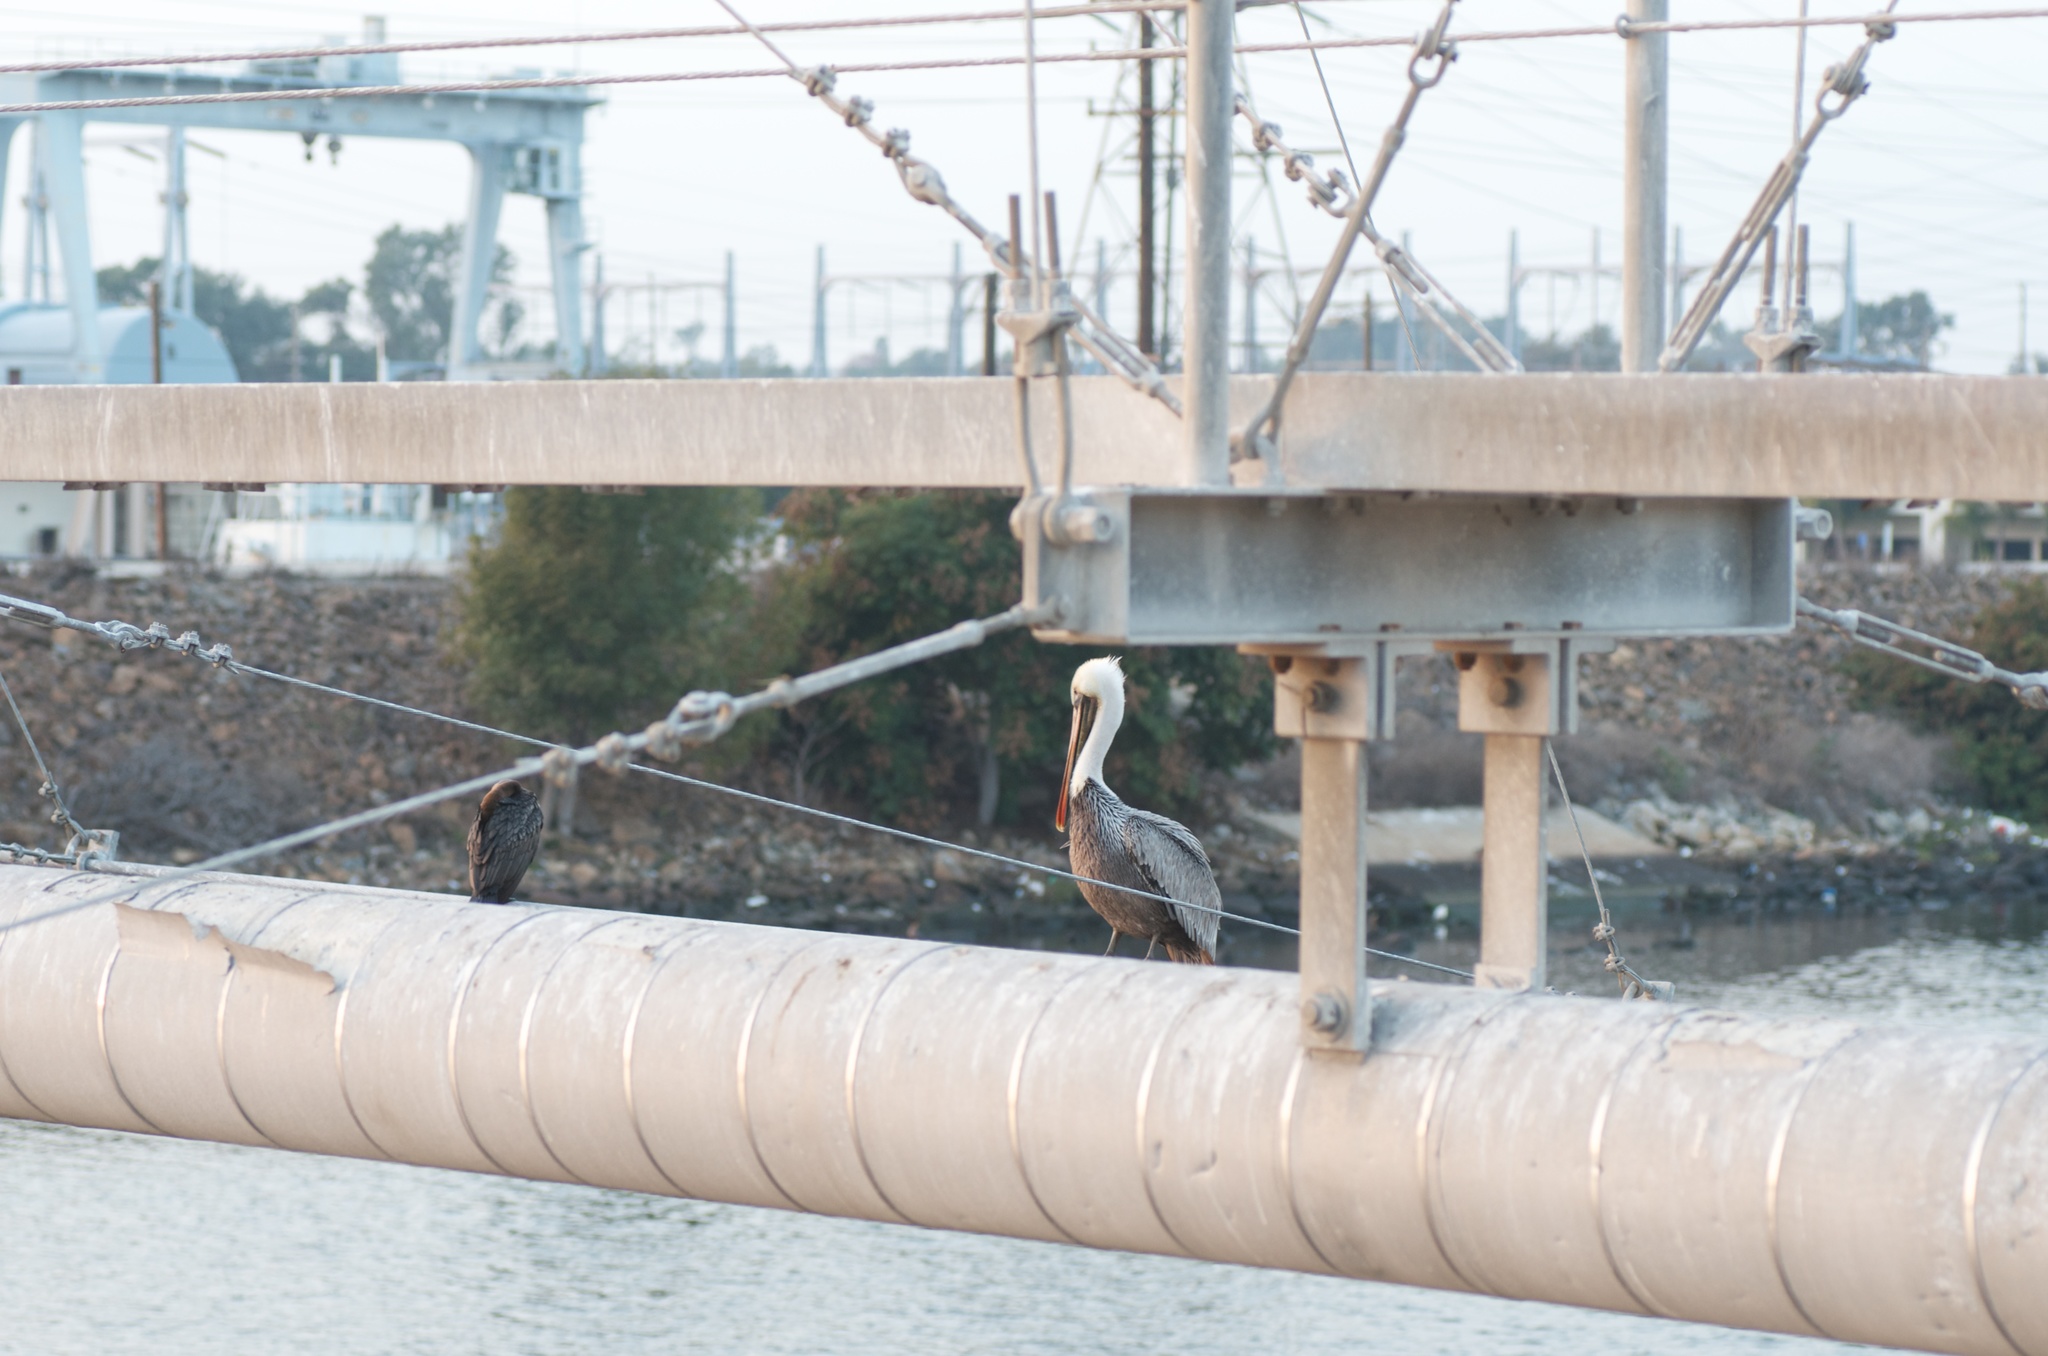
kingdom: Animalia
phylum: Chordata
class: Aves
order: Pelecaniformes
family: Pelecanidae
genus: Pelecanus
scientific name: Pelecanus occidentalis
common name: Brown pelican
